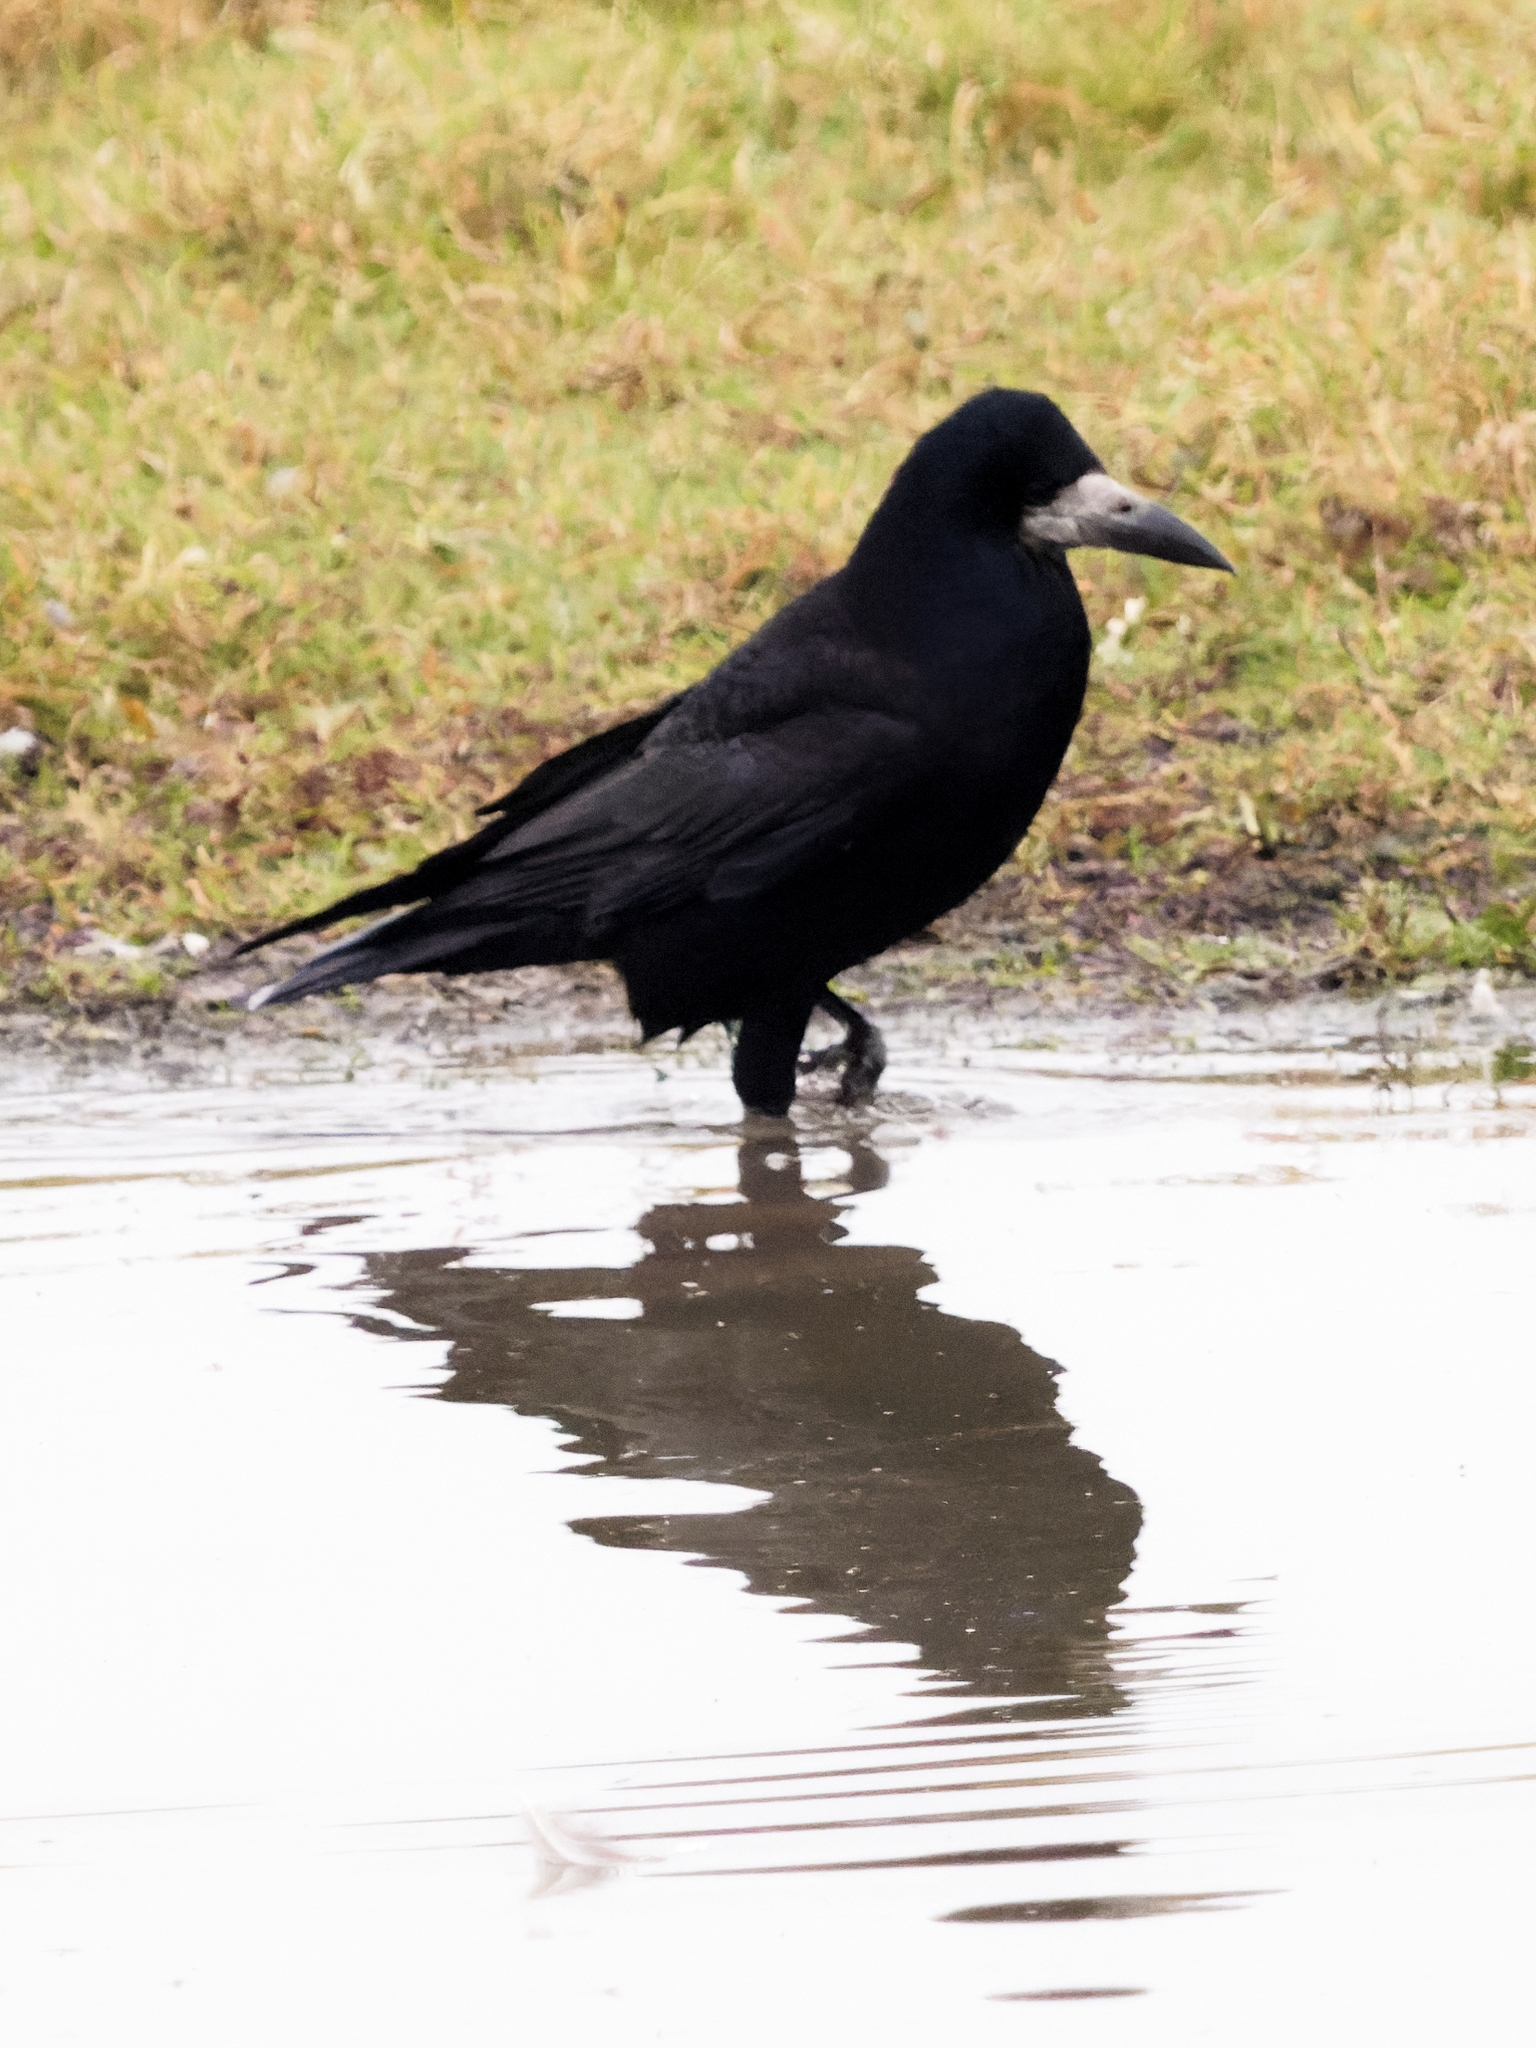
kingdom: Animalia
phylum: Chordata
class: Aves
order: Passeriformes
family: Corvidae
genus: Corvus
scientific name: Corvus frugilegus
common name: Rook
